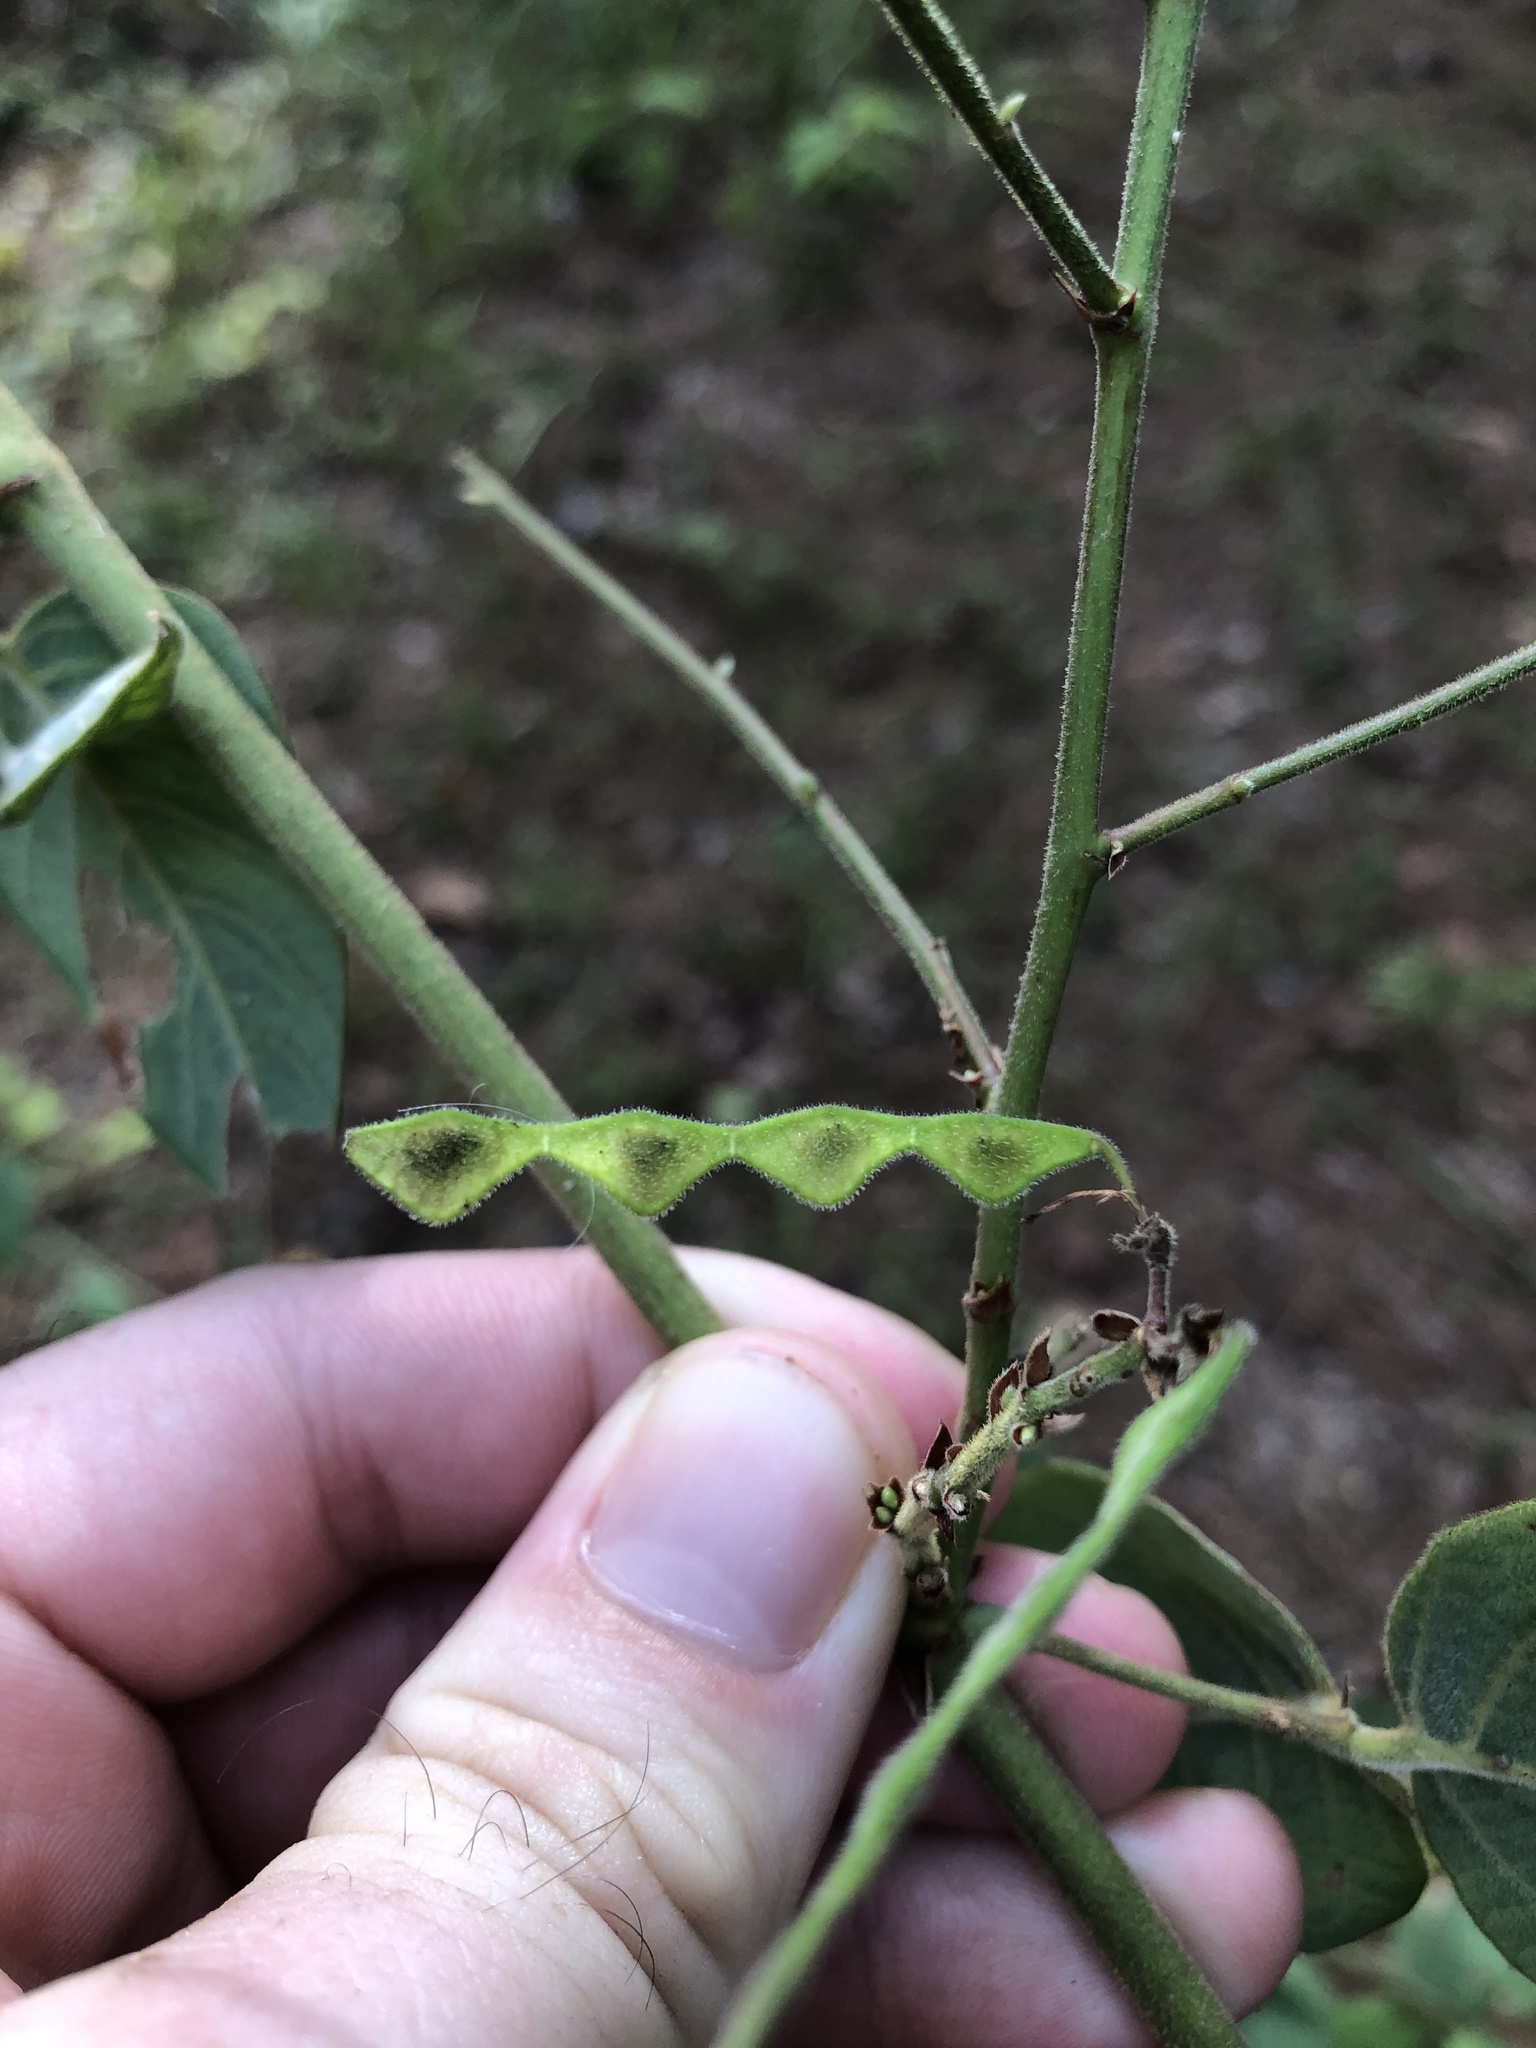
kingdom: Plantae
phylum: Tracheophyta
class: Magnoliopsida
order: Fabales
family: Fabaceae
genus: Desmodium
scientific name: Desmodium viridiflorum
